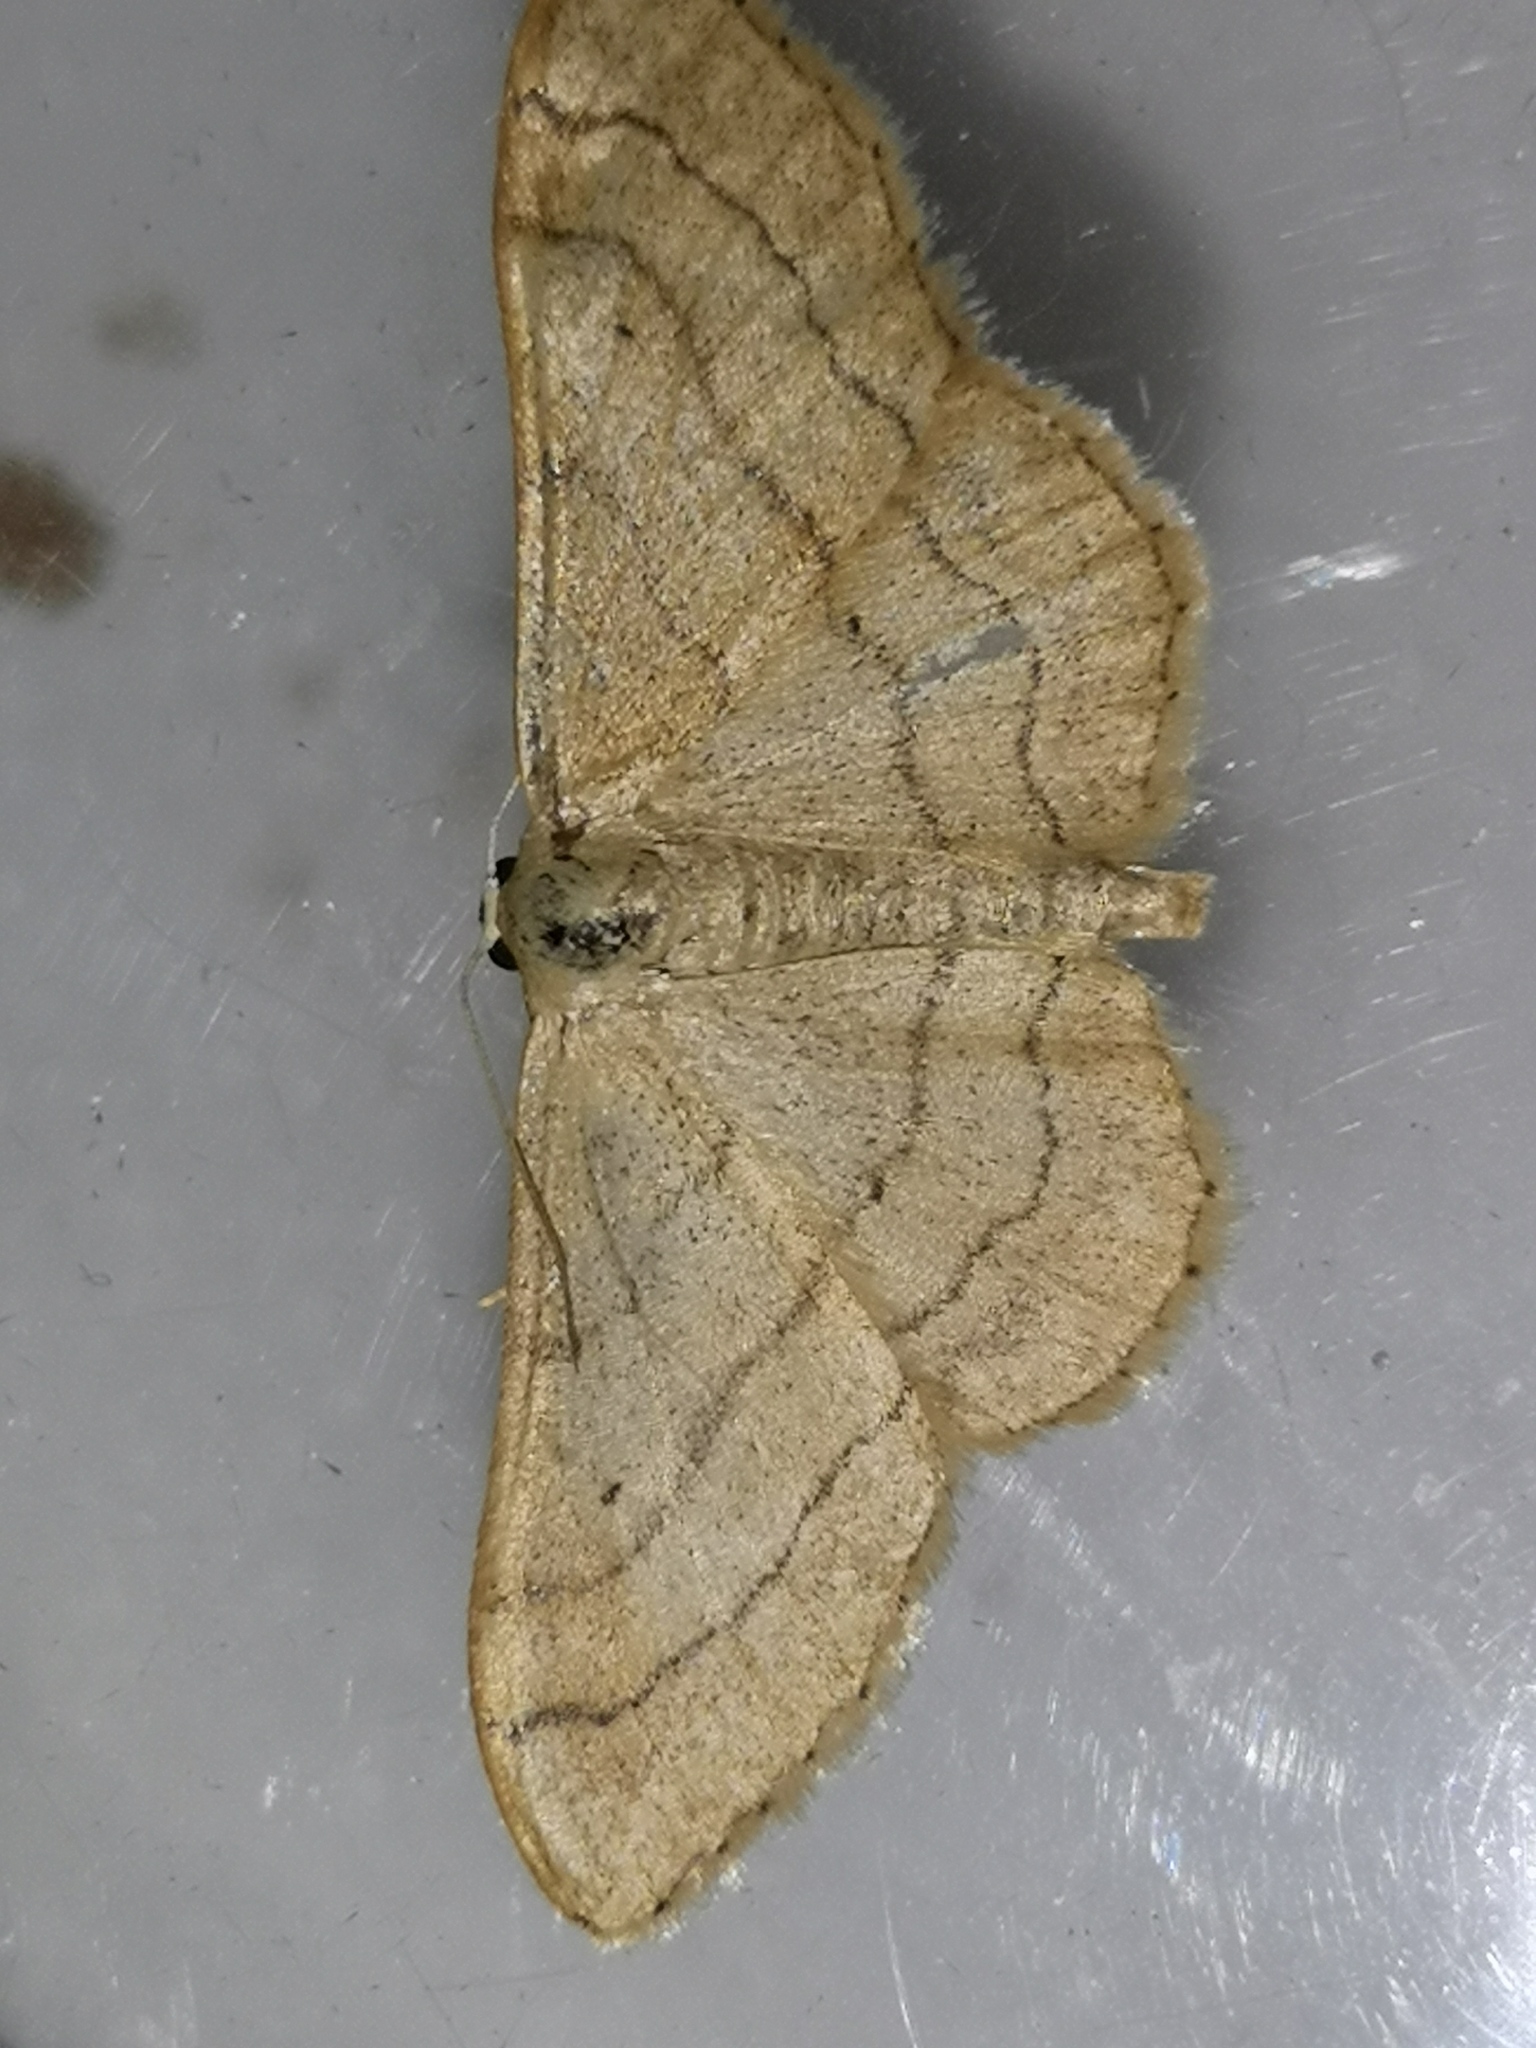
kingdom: Animalia
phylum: Arthropoda
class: Insecta
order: Lepidoptera
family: Geometridae
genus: Idaea
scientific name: Idaea aversata
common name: Riband wave
